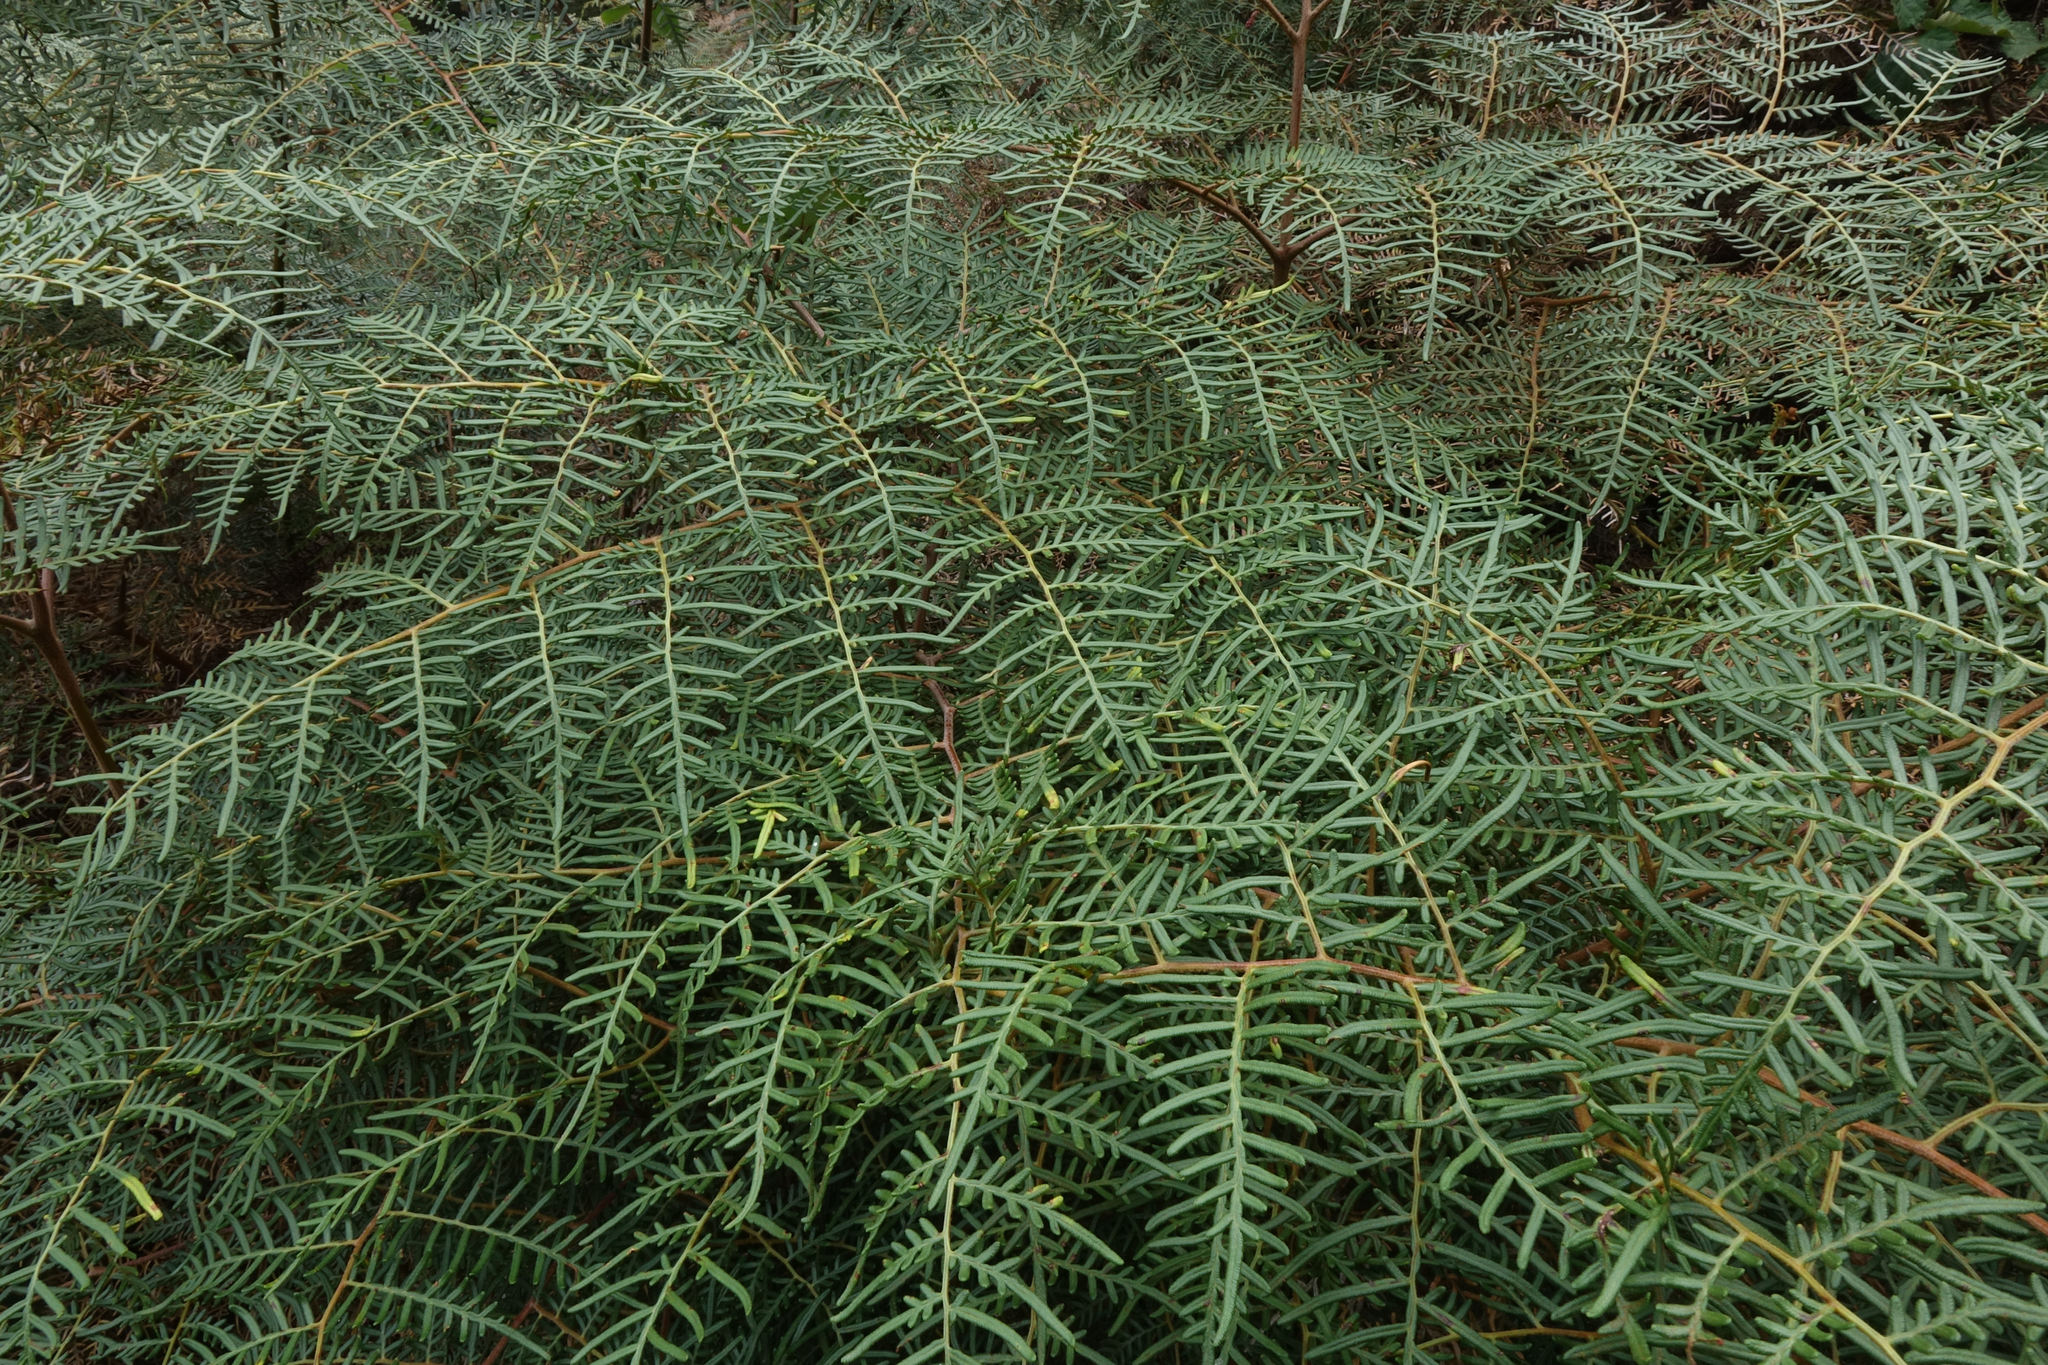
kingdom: Plantae
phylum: Tracheophyta
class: Polypodiopsida
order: Polypodiales
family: Dennstaedtiaceae
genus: Pteridium
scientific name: Pteridium esculentum
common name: Bracken fern
